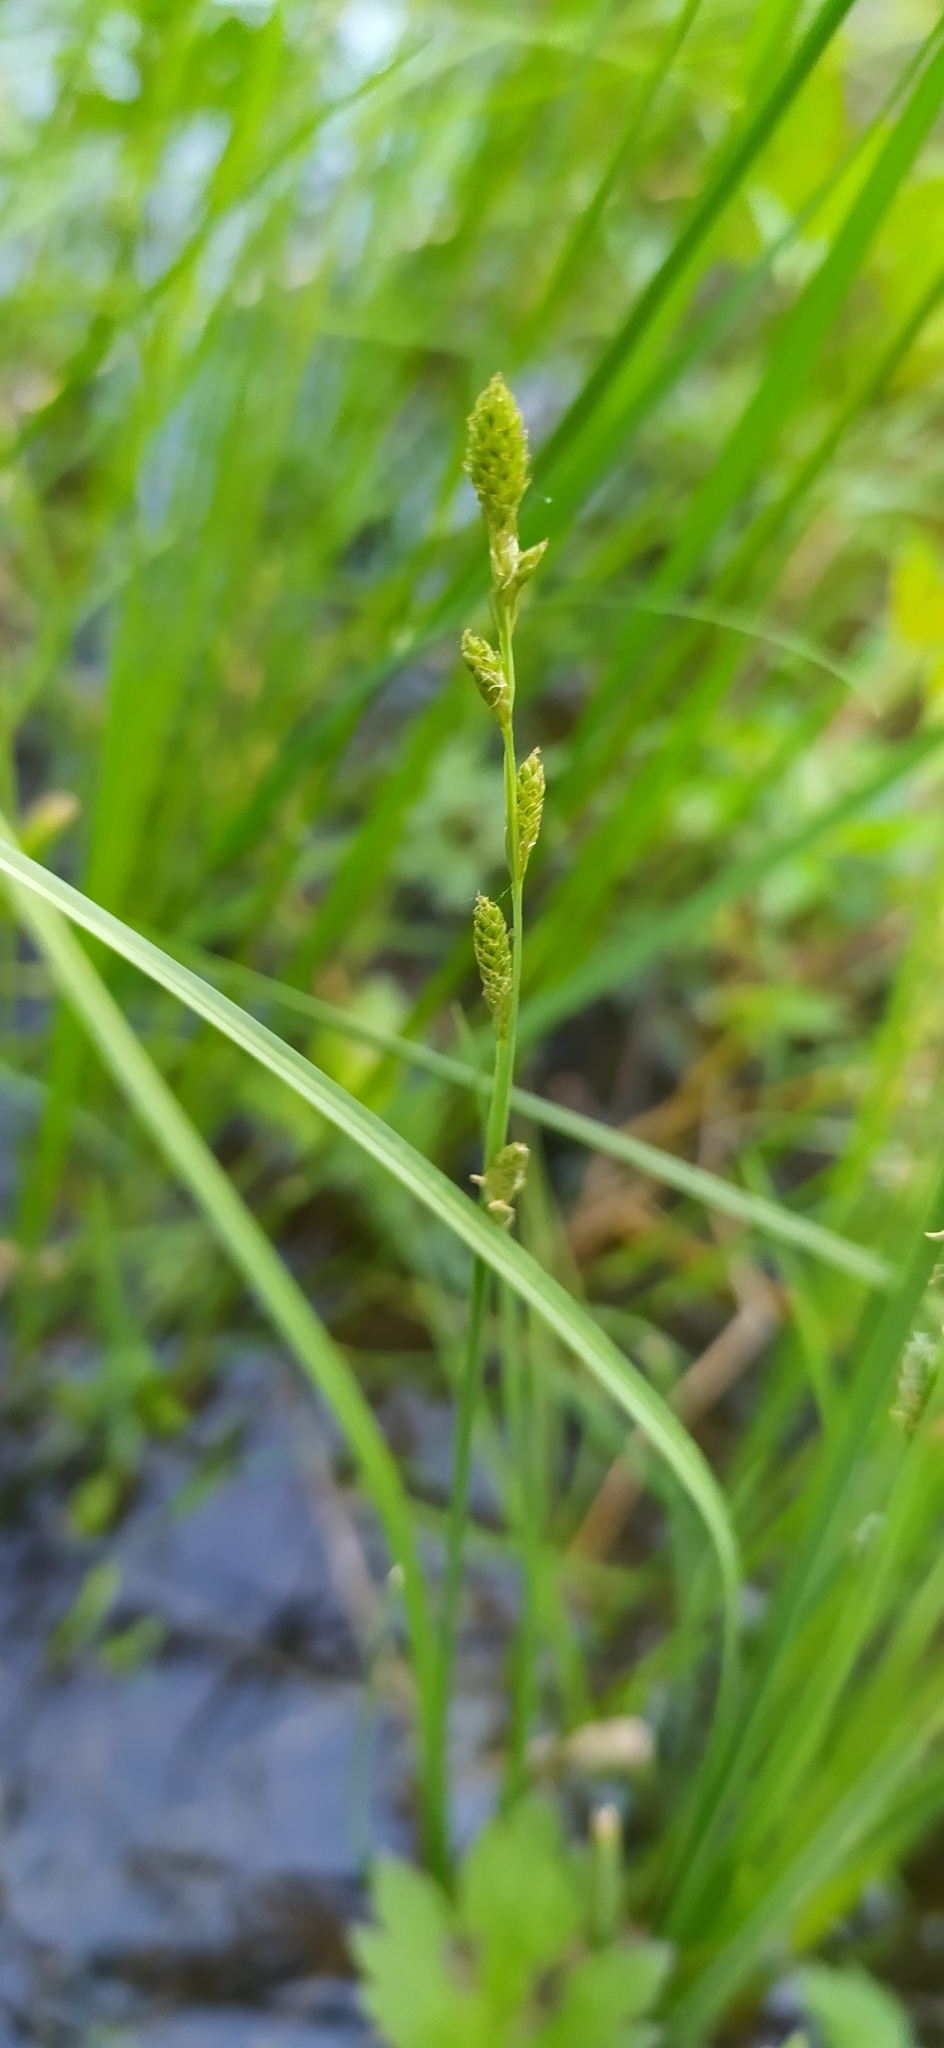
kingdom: Plantae
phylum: Tracheophyta
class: Liliopsida
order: Poales
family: Cyperaceae
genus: Carex
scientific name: Carex canescens
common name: White sedge
